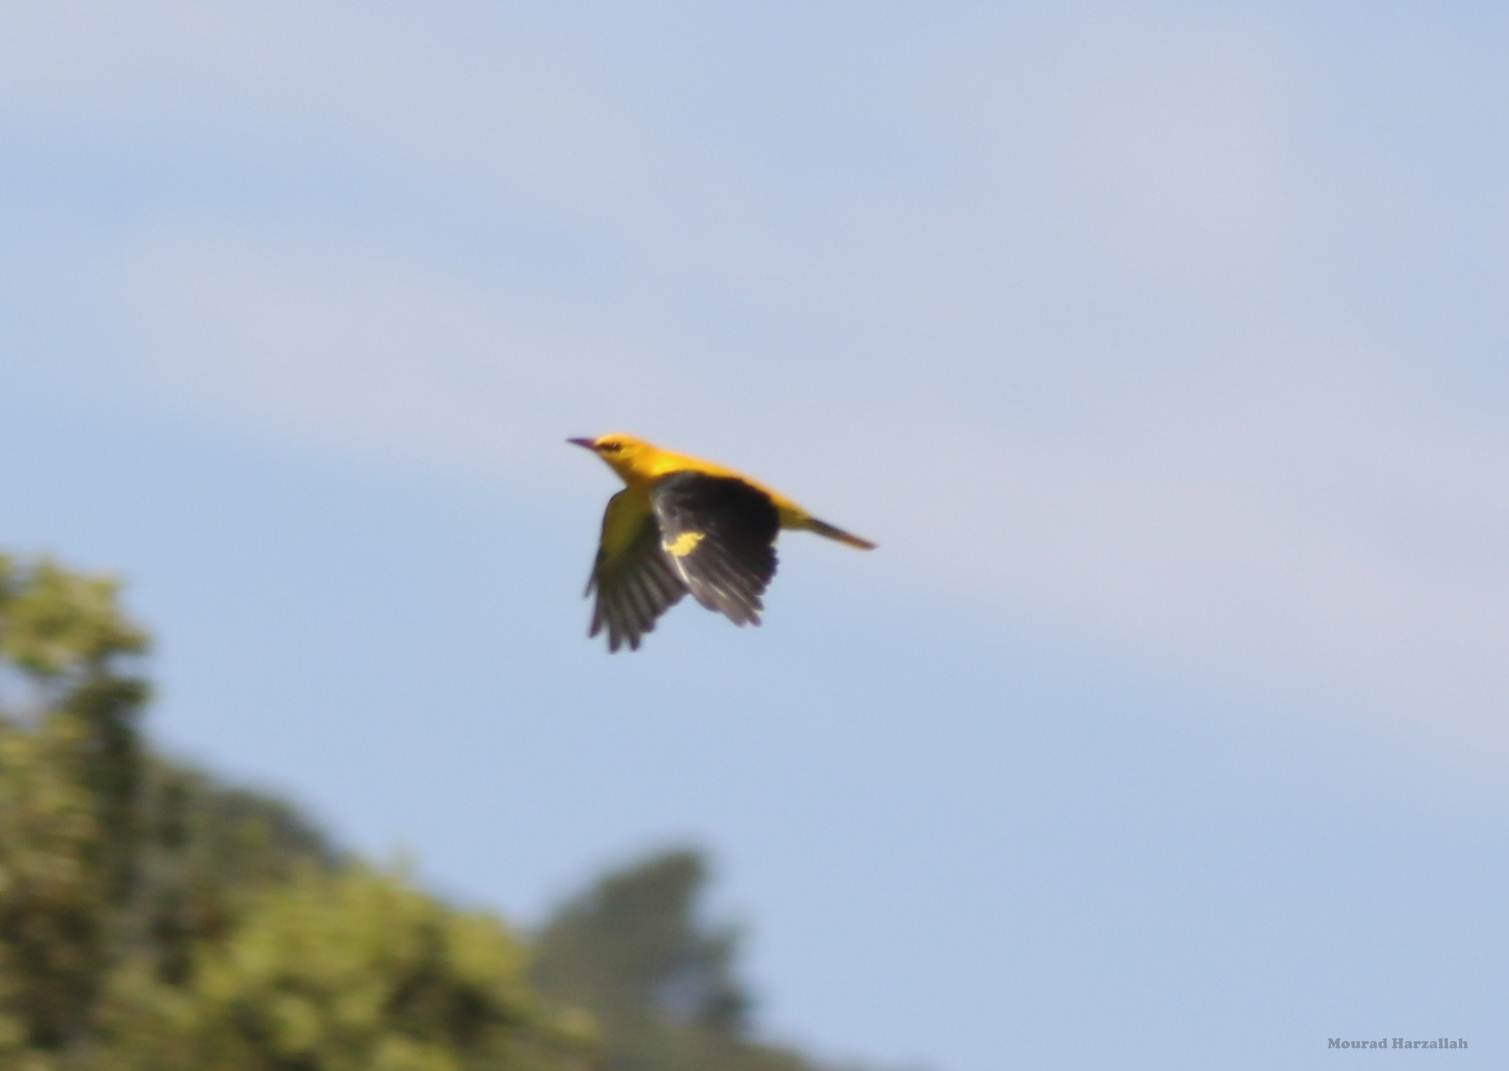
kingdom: Animalia
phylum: Chordata
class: Aves
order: Passeriformes
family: Oriolidae
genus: Oriolus
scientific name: Oriolus oriolus
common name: Eurasian golden oriole
